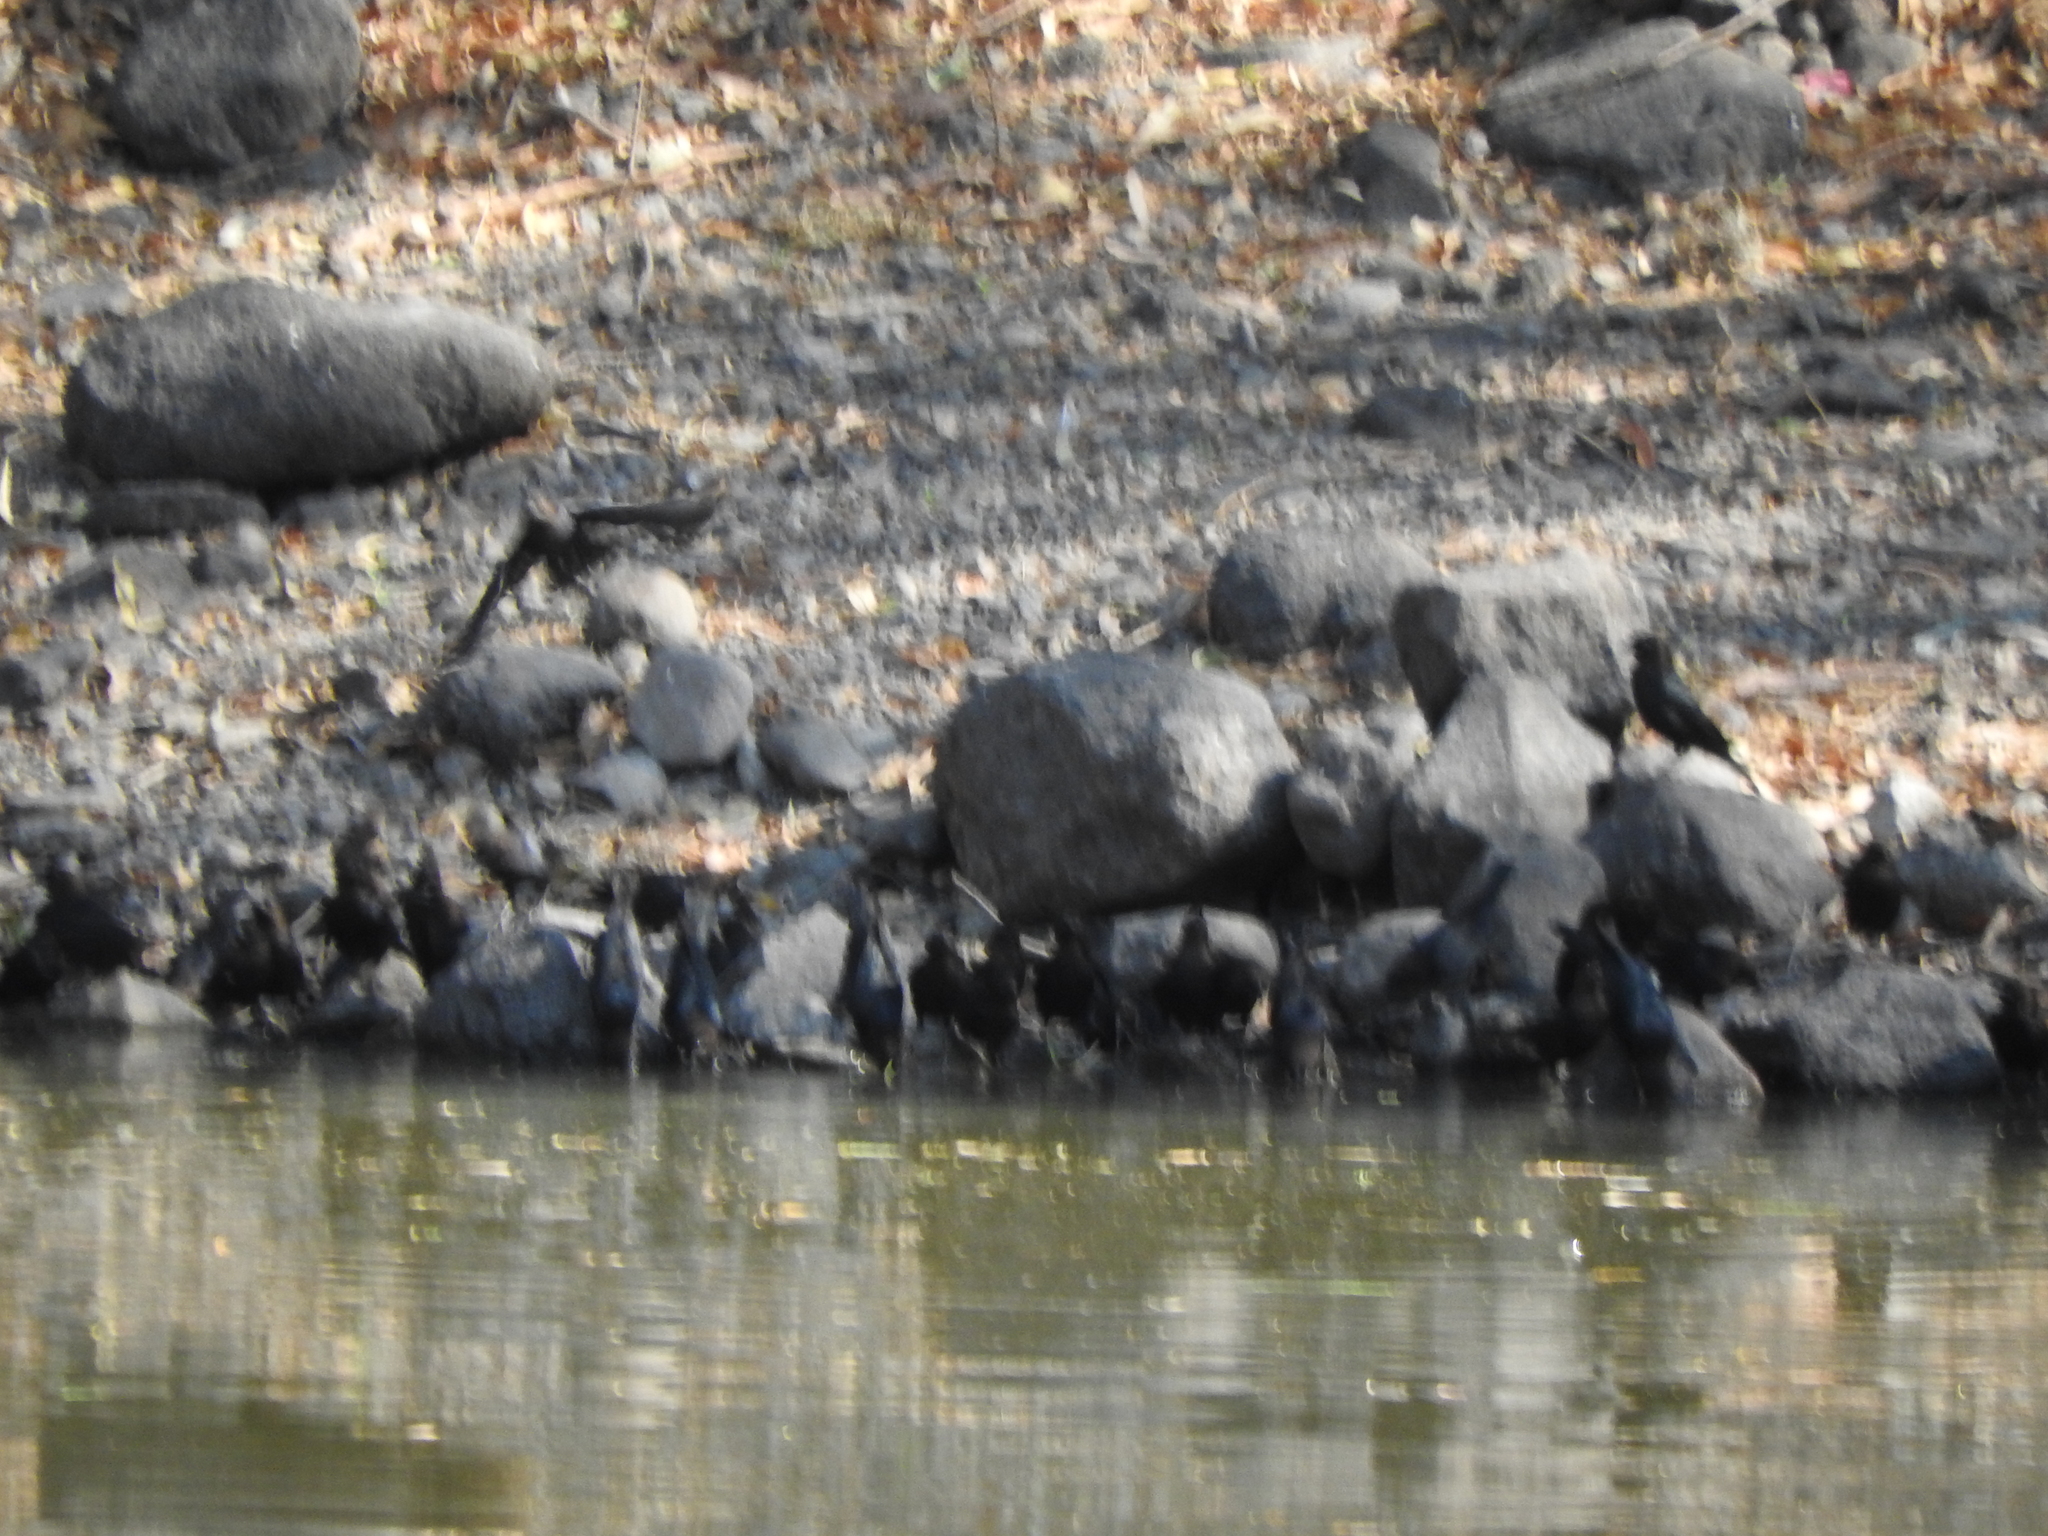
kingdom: Animalia
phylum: Chordata
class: Aves
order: Passeriformes
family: Icteridae
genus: Molothrus
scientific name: Molothrus ater
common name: Brown-headed cowbird
